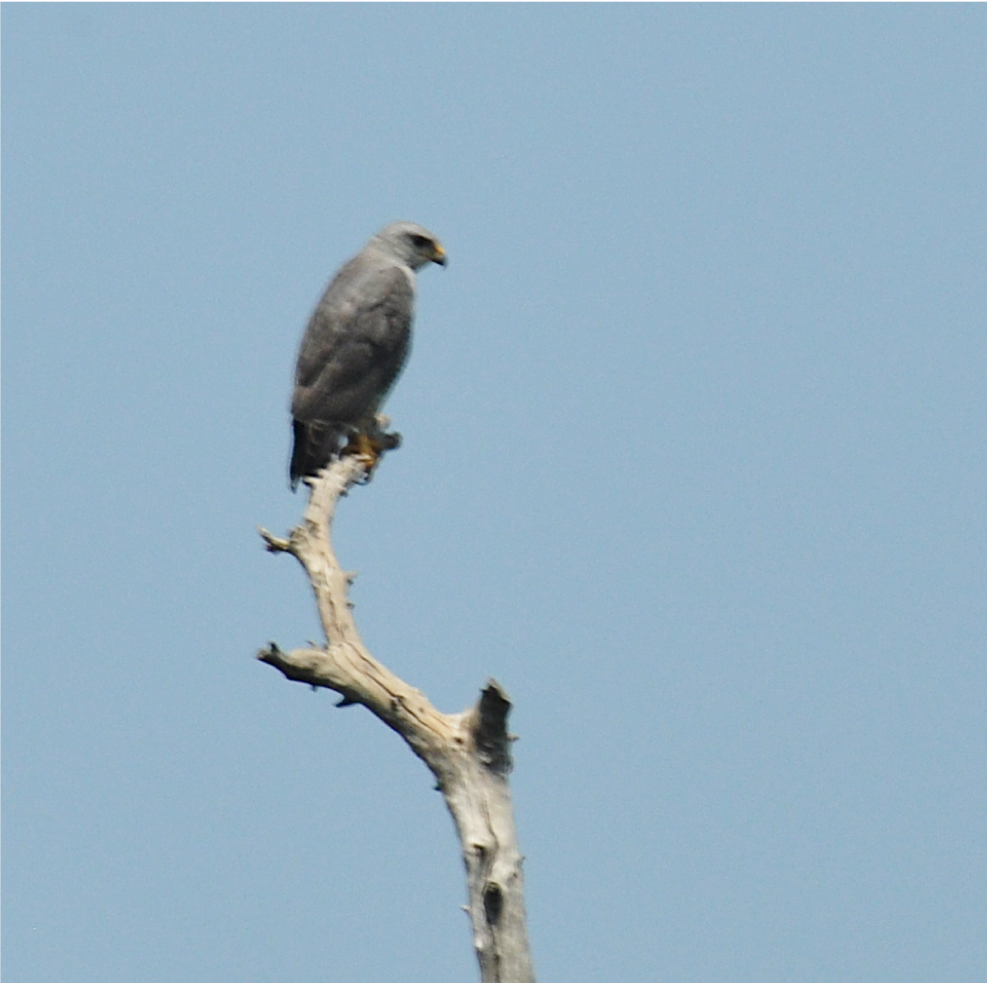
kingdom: Animalia
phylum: Chordata
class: Aves
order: Accipitriformes
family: Accipitridae
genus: Buteo
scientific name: Buteo nitidus
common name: Grey-lined hawk
